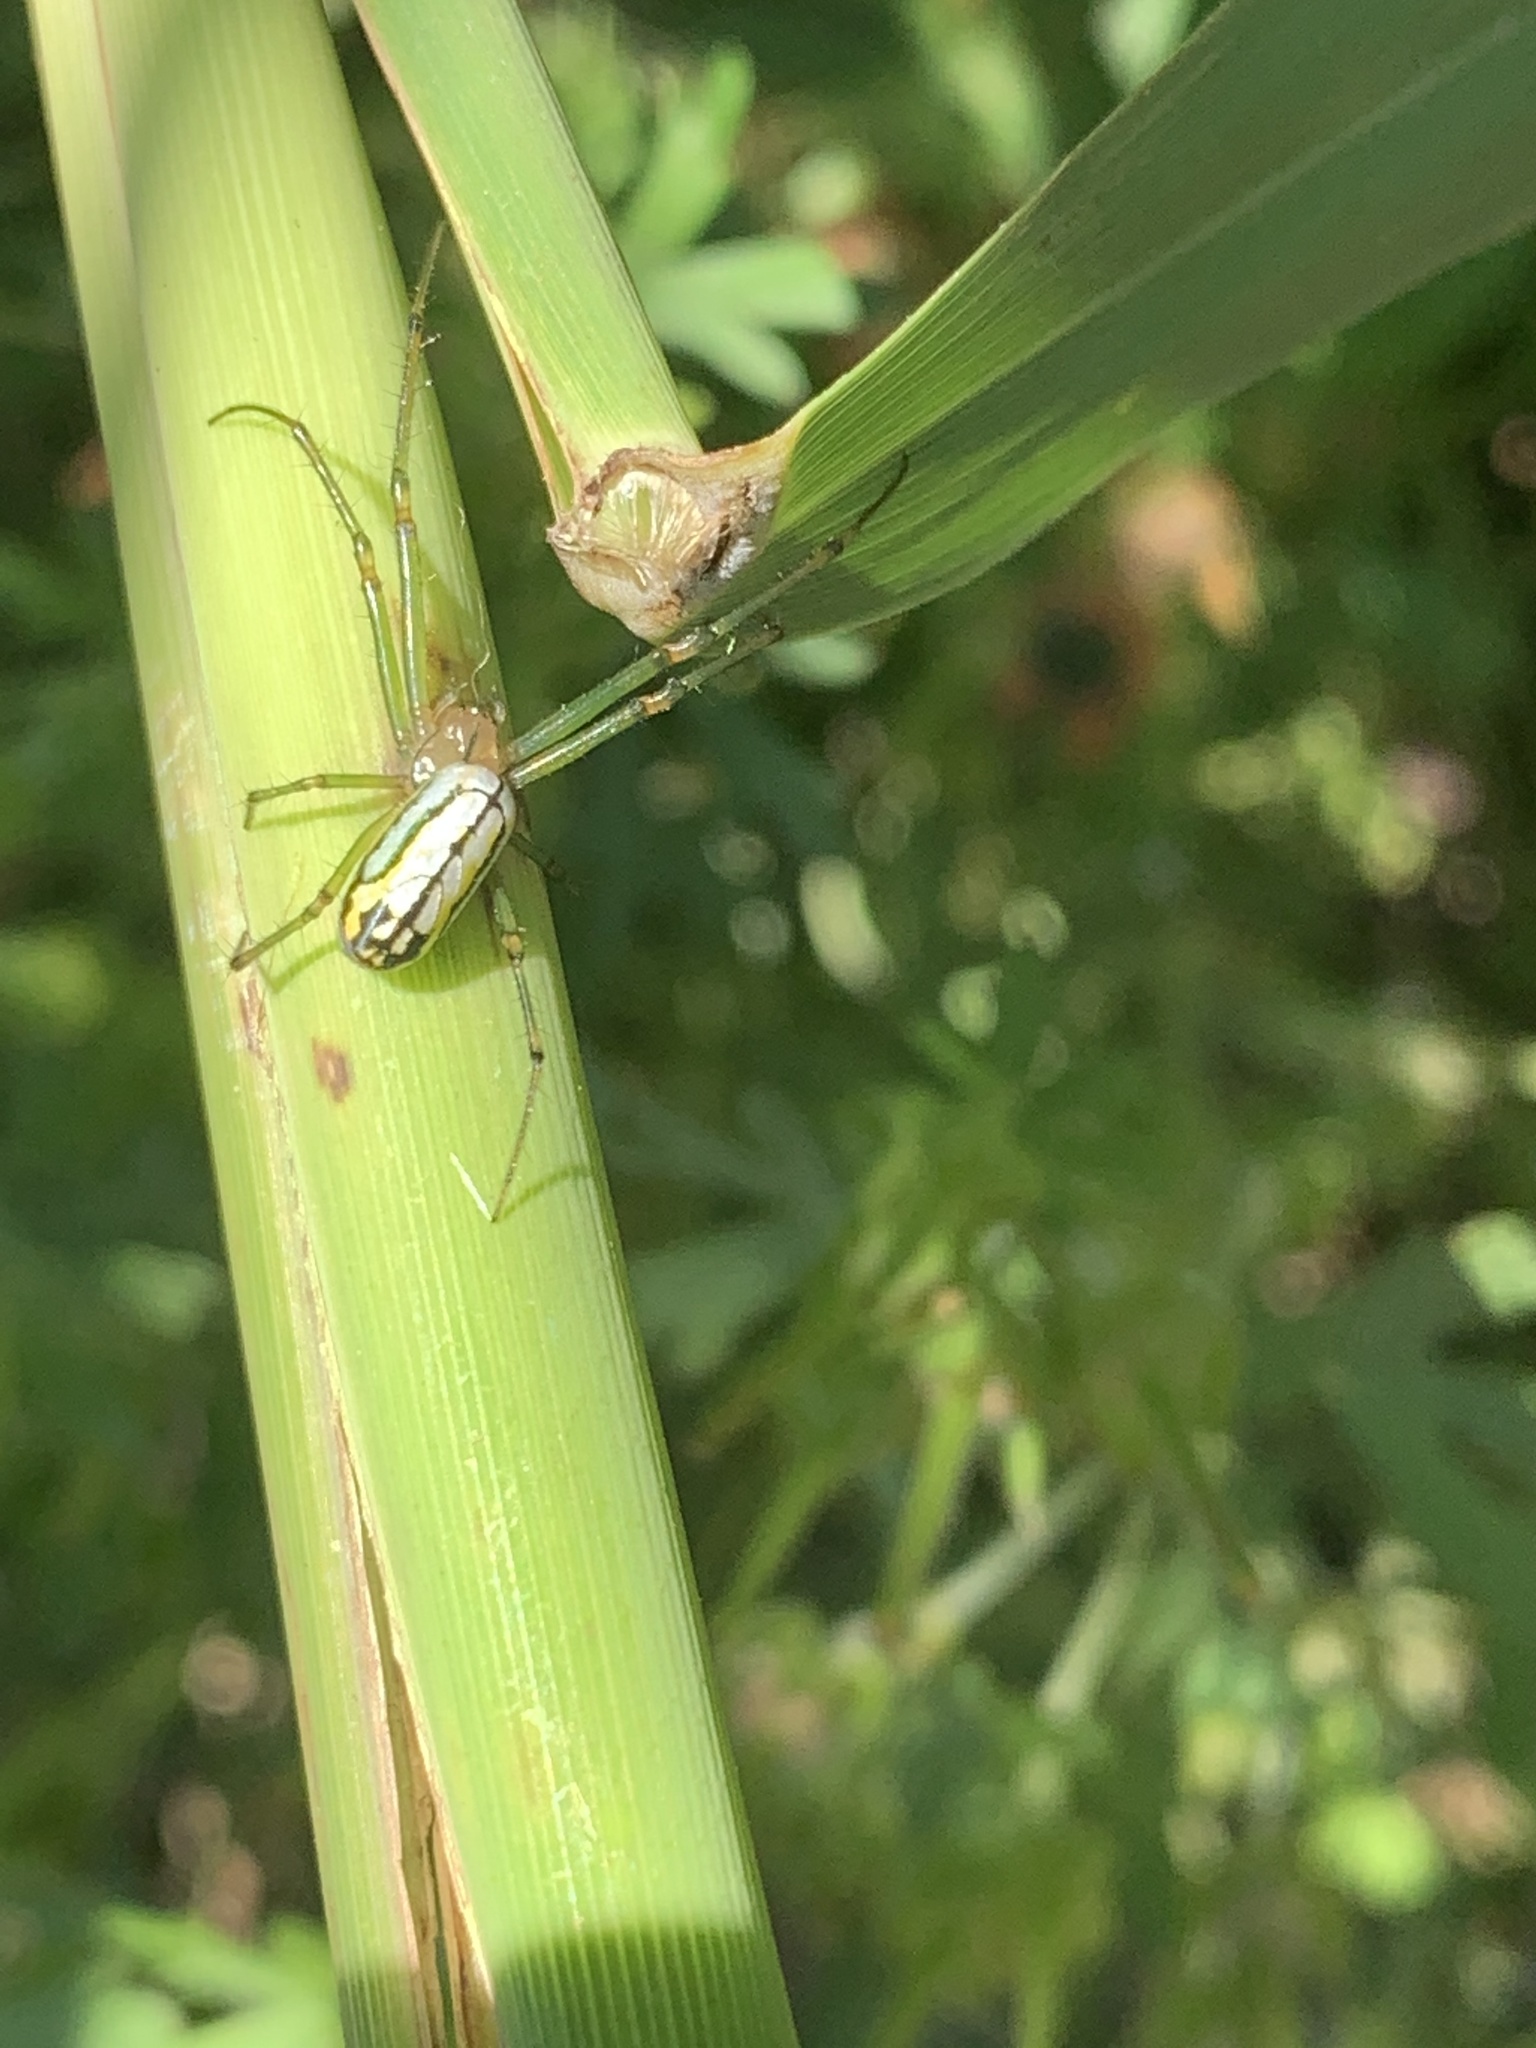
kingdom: Animalia
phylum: Arthropoda
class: Arachnida
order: Araneae
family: Tetragnathidae
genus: Leucauge
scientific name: Leucauge venusta
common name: Longjawed orb weavers
